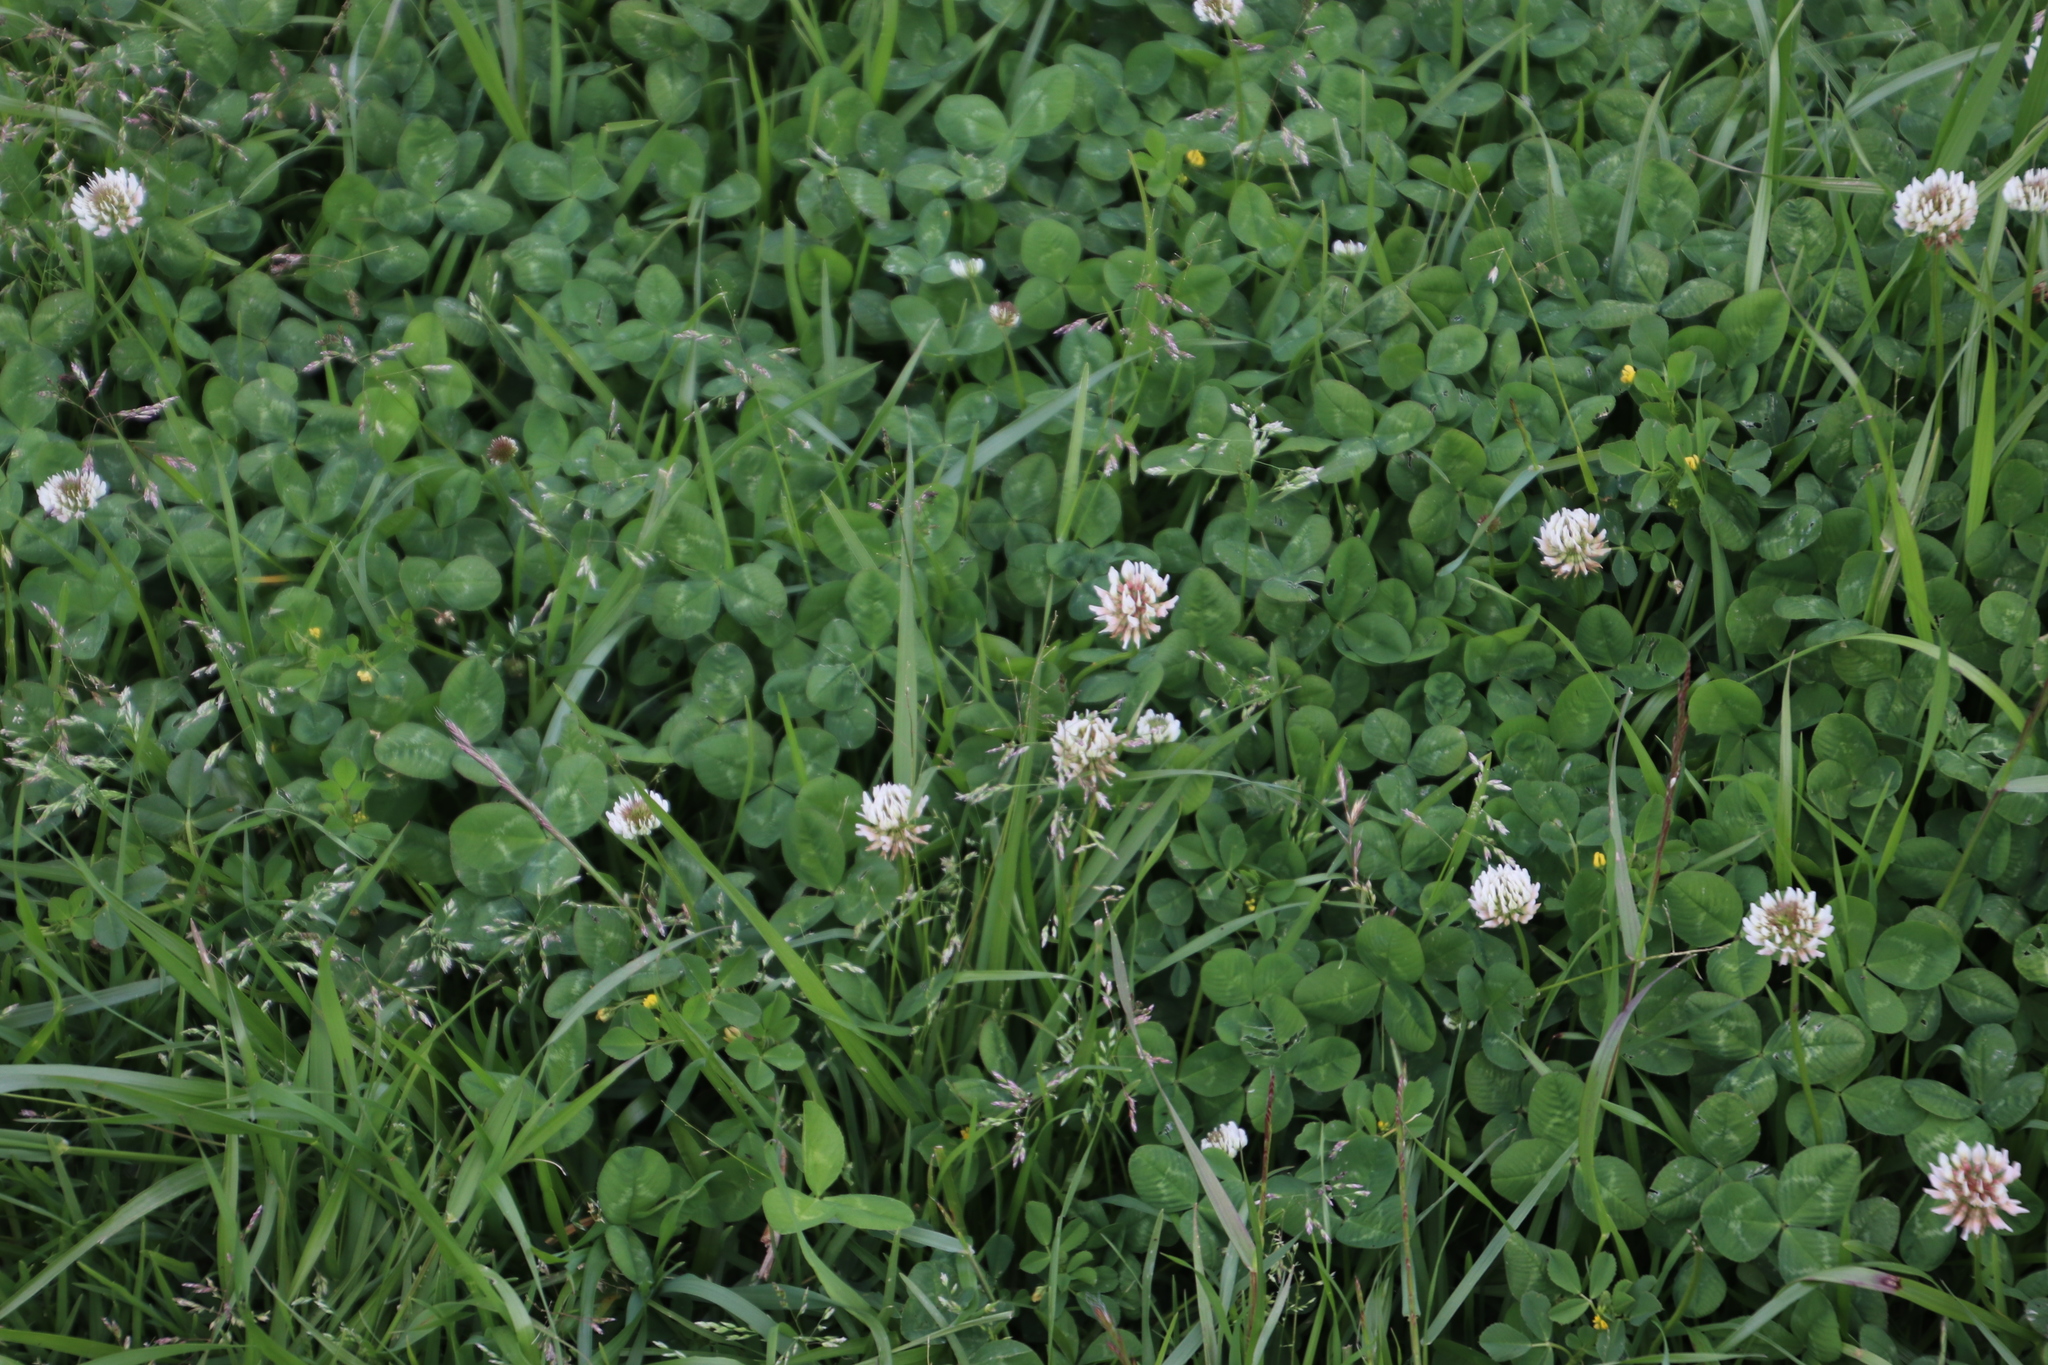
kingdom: Plantae
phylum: Tracheophyta
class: Magnoliopsida
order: Fabales
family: Fabaceae
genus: Trifolium
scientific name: Trifolium repens
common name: White clover
